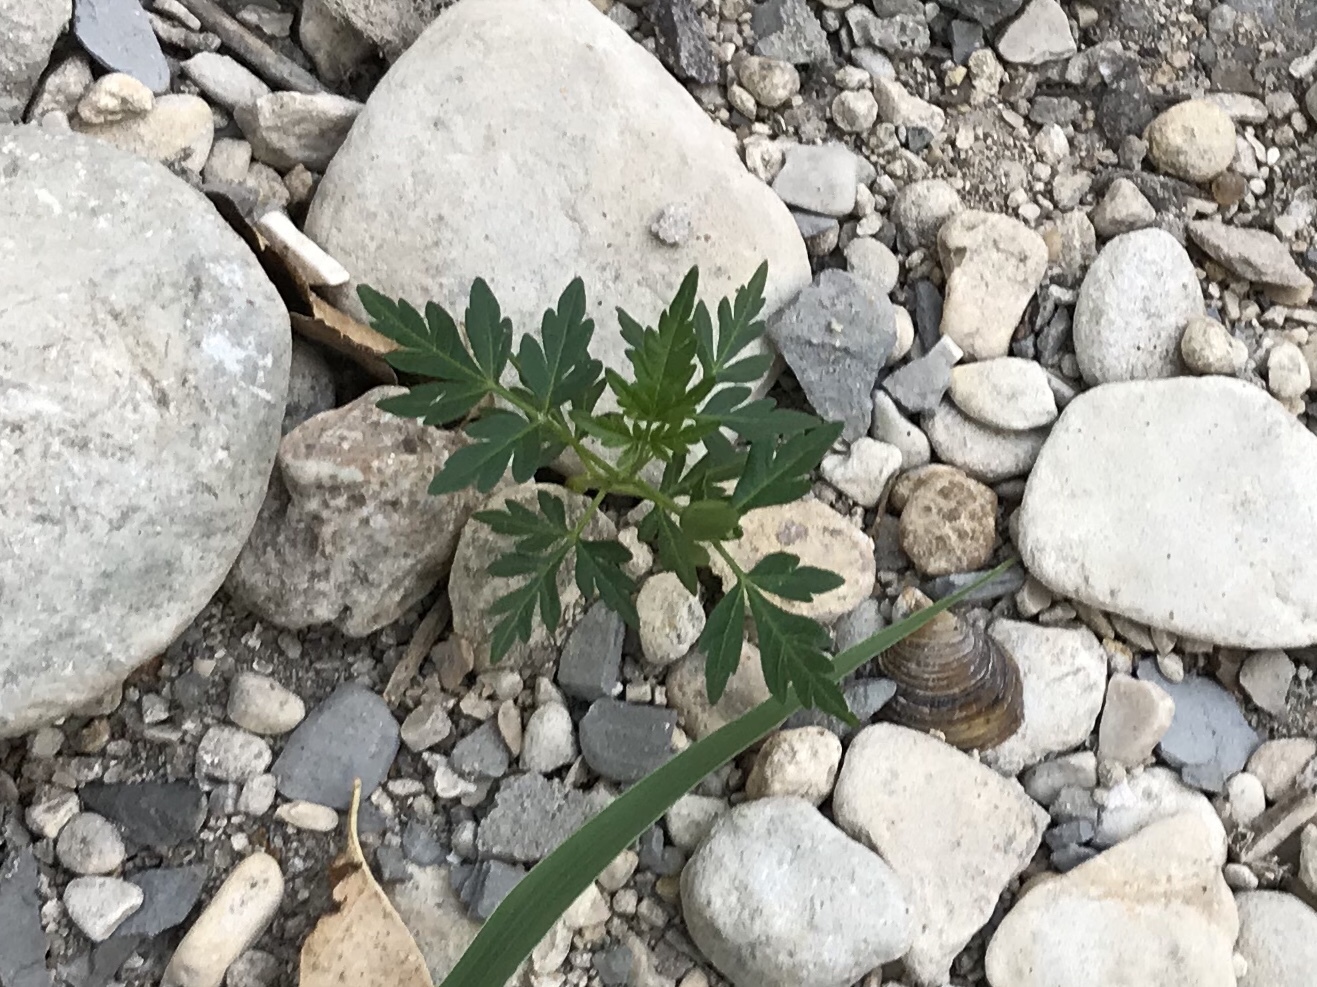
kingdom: Plantae
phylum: Tracheophyta
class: Magnoliopsida
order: Sapindales
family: Meliaceae
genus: Melia
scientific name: Melia azedarach
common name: Chinaberrytree
